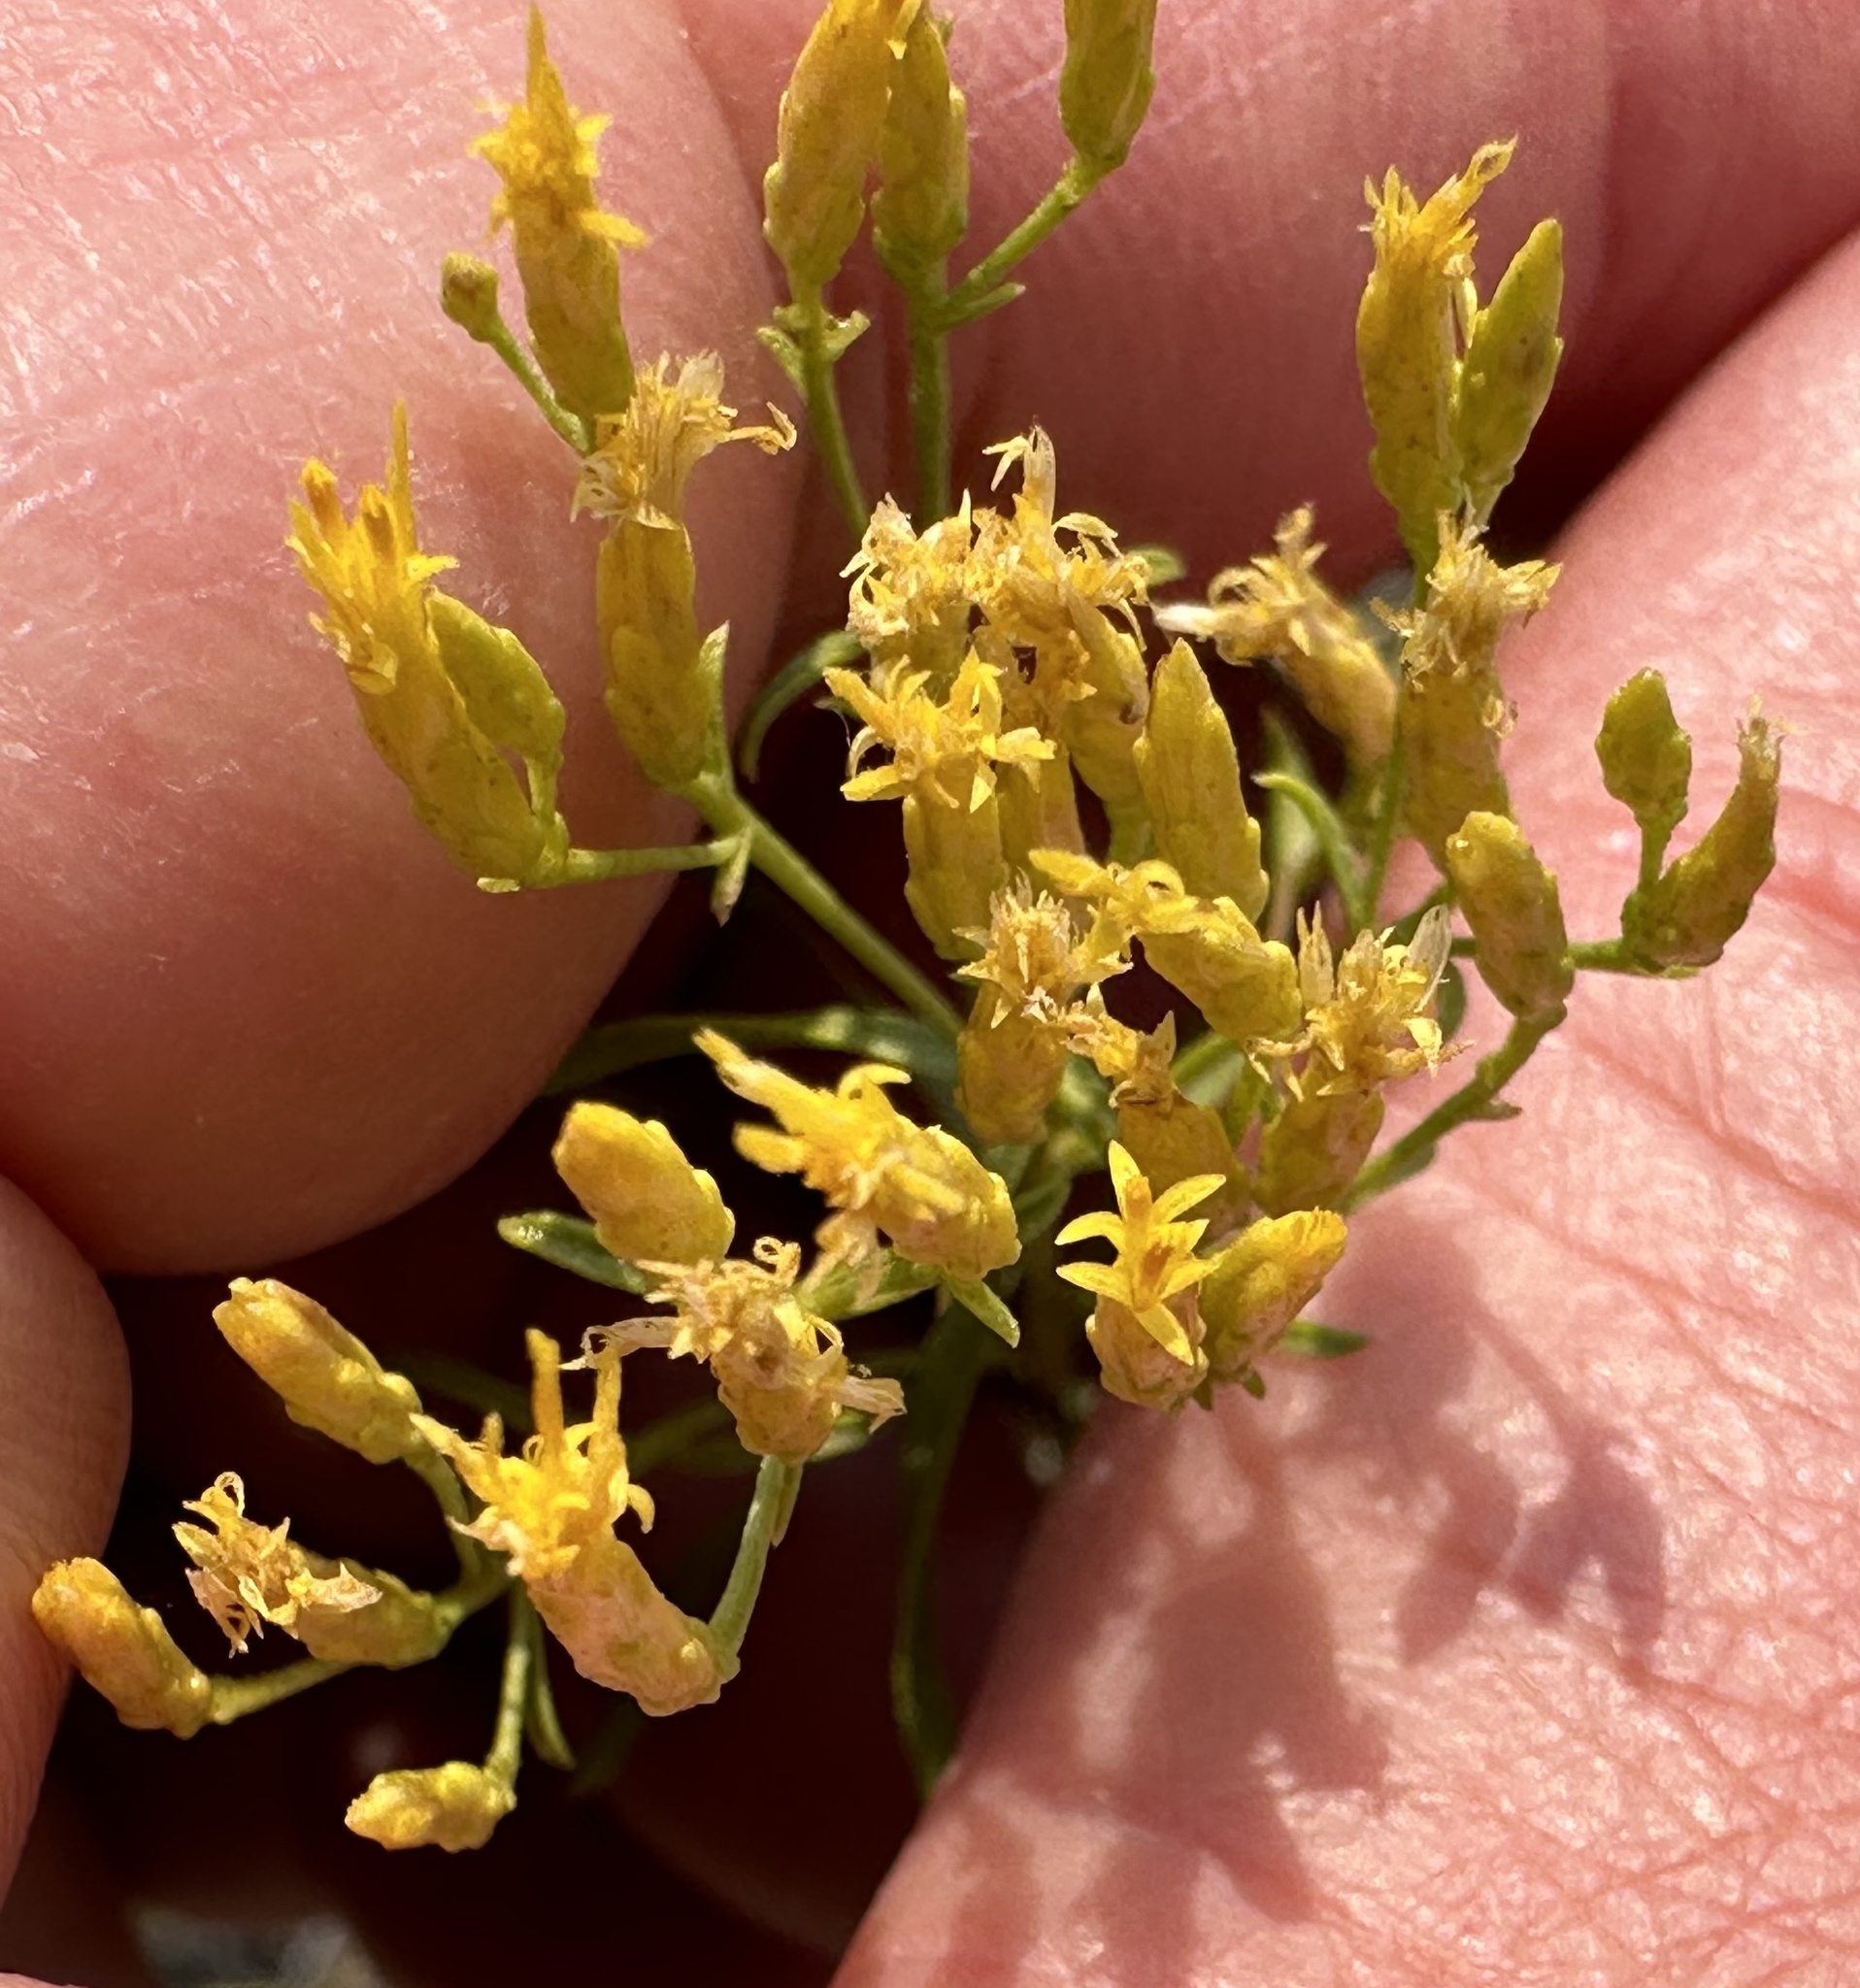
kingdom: Plantae
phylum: Tracheophyta
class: Magnoliopsida
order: Asterales
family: Asteraceae
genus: Chrysothamnus
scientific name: Chrysothamnus viscidiflorus
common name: Yellow rabbitbrush
